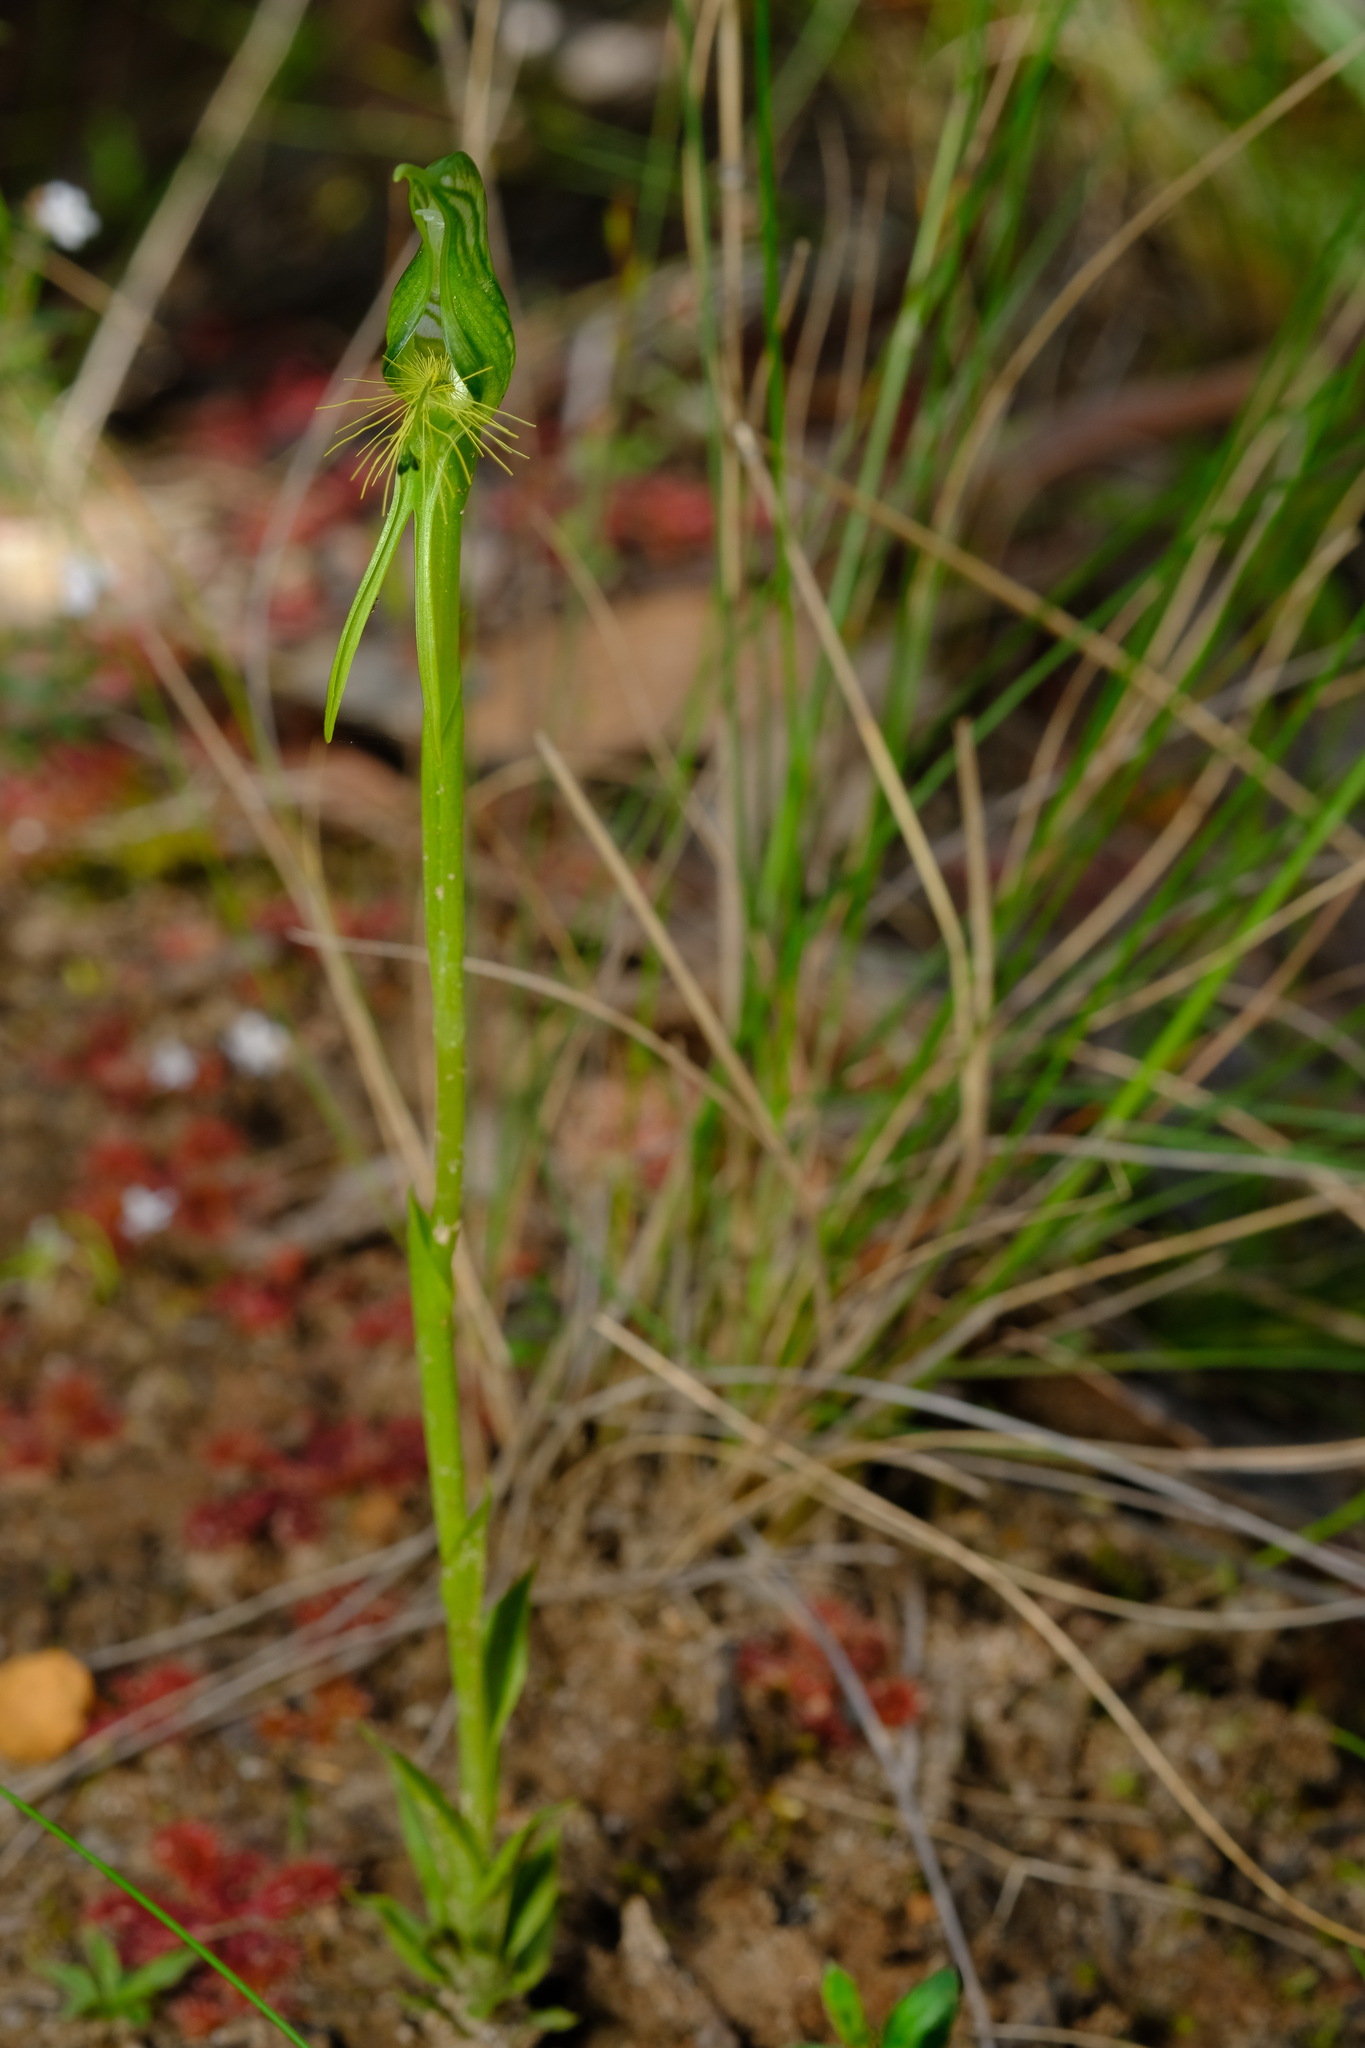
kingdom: Plantae
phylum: Tracheophyta
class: Liliopsida
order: Asparagales
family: Orchidaceae
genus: Pterostylis
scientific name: Pterostylis unicornis
